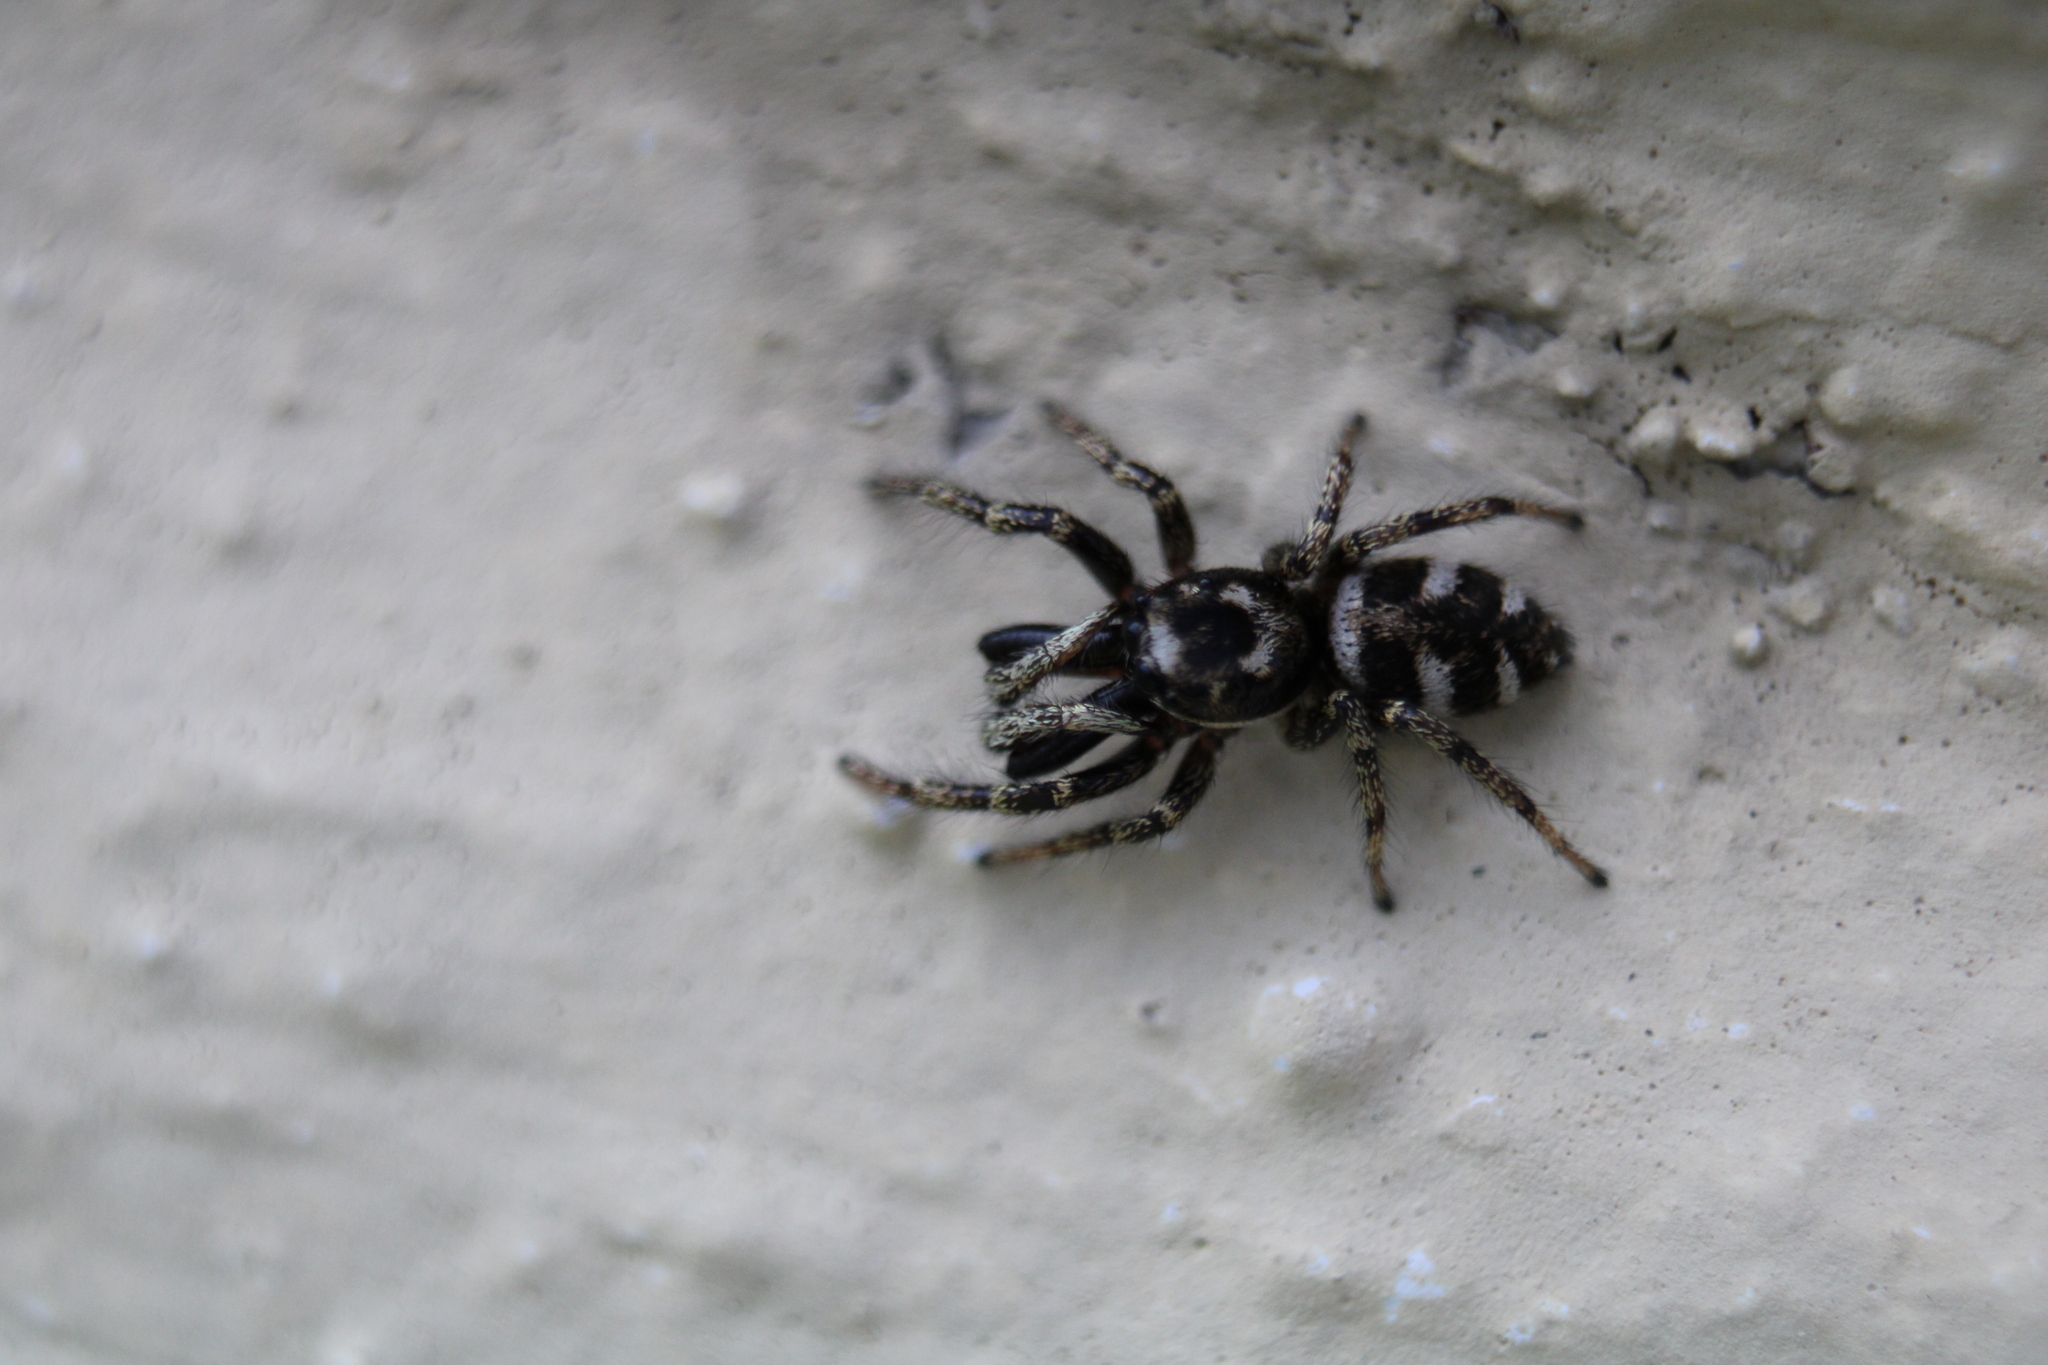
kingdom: Animalia
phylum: Arthropoda
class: Arachnida
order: Araneae
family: Salticidae
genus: Salticus
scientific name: Salticus scenicus
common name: Zebra jumper
